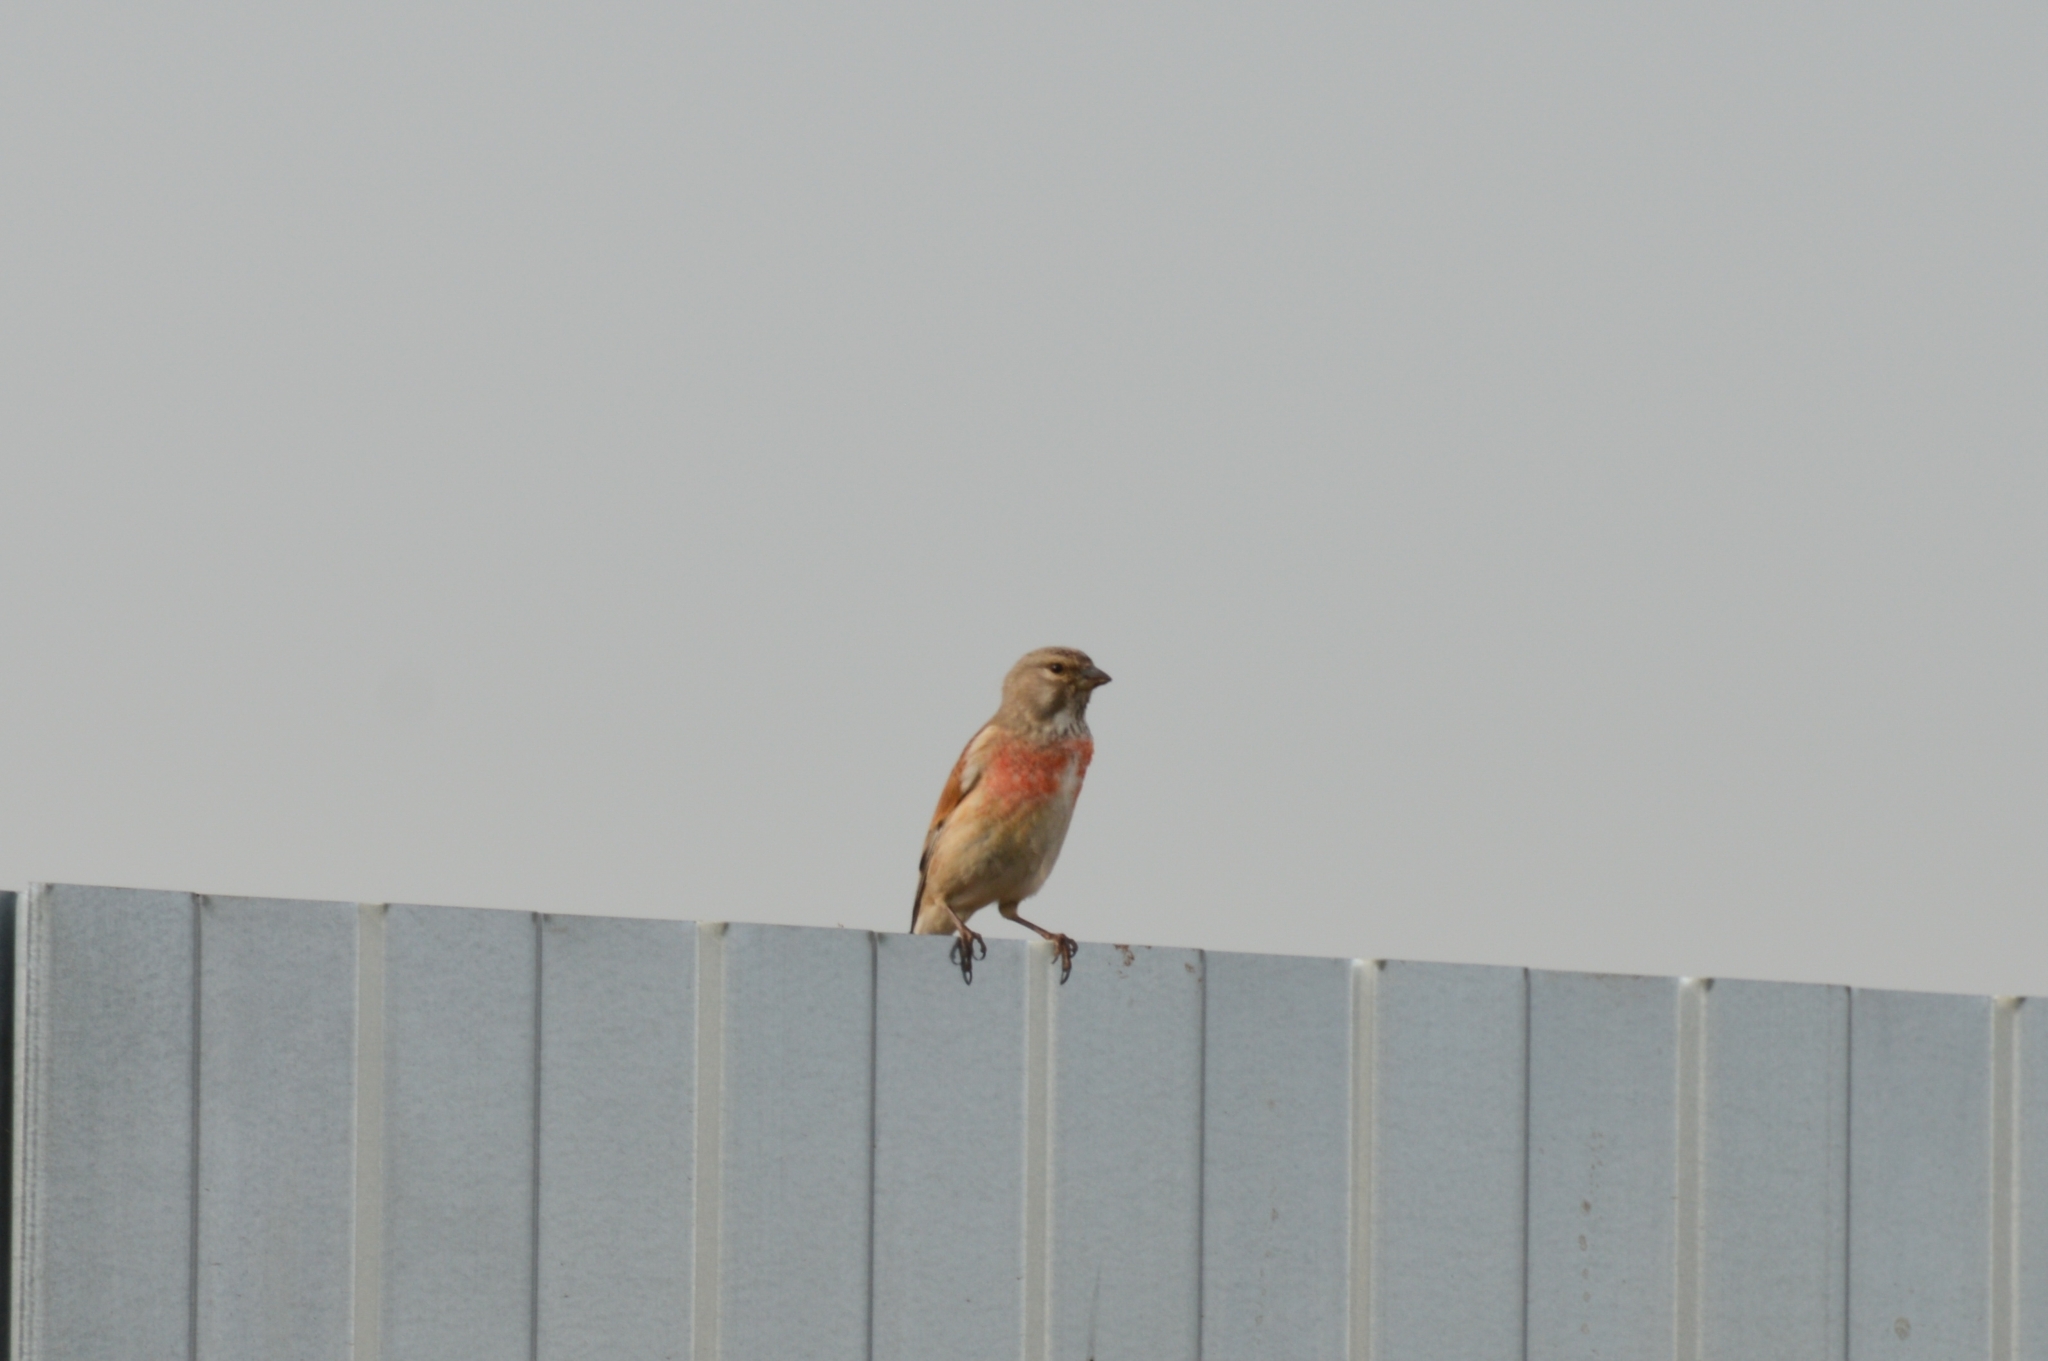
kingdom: Animalia
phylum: Chordata
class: Aves
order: Passeriformes
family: Fringillidae
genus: Linaria
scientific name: Linaria cannabina
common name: Common linnet
